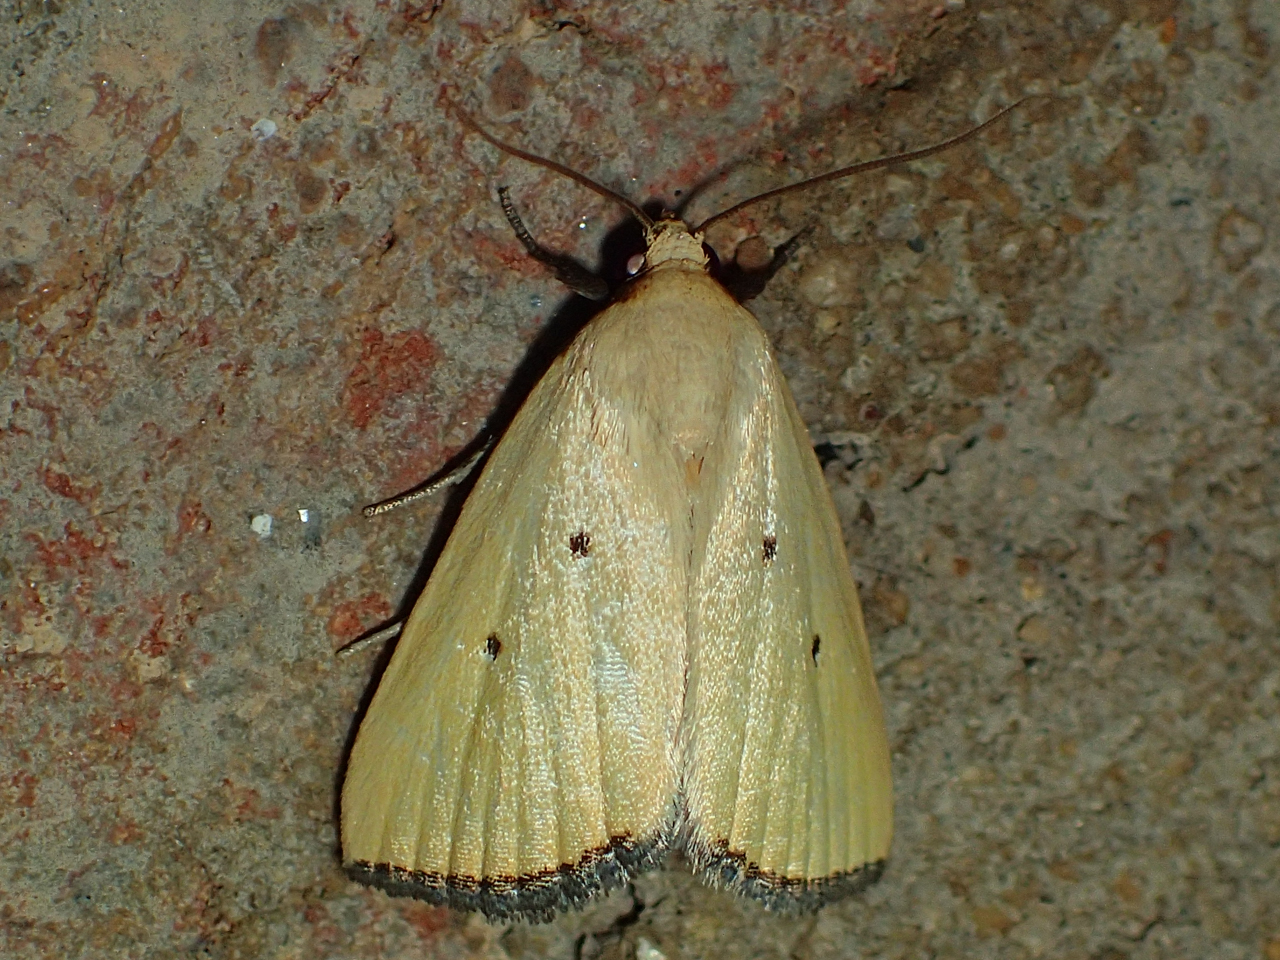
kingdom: Animalia
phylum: Arthropoda
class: Insecta
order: Lepidoptera
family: Noctuidae
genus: Marimatha
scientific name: Marimatha nigrofimbria
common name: Black-bordered lemon moth
